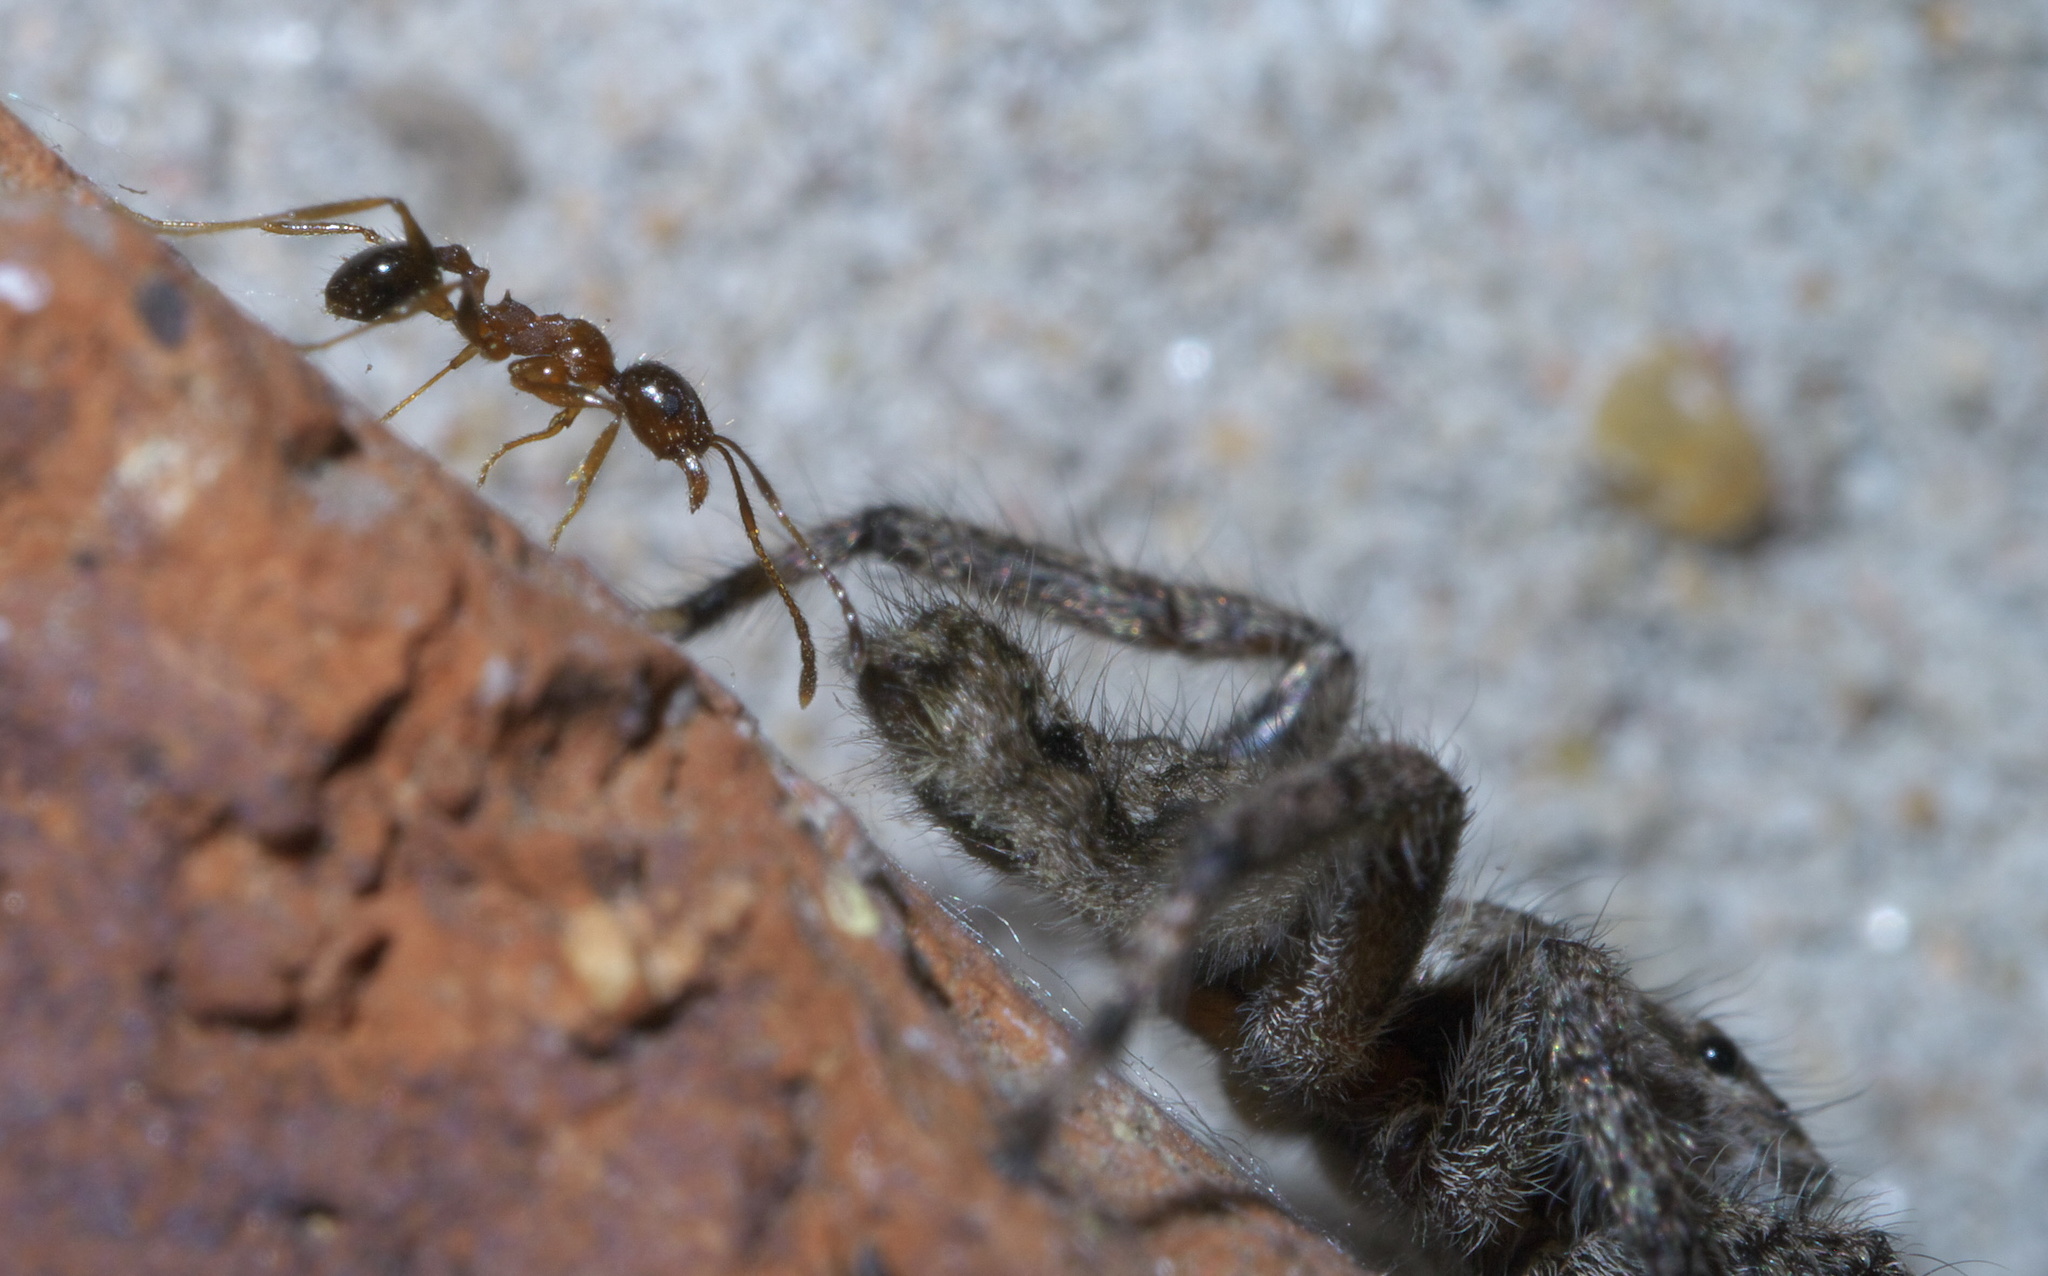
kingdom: Animalia
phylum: Arthropoda
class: Insecta
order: Hymenoptera
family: Formicidae
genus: Pheidole
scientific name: Pheidole dentata
